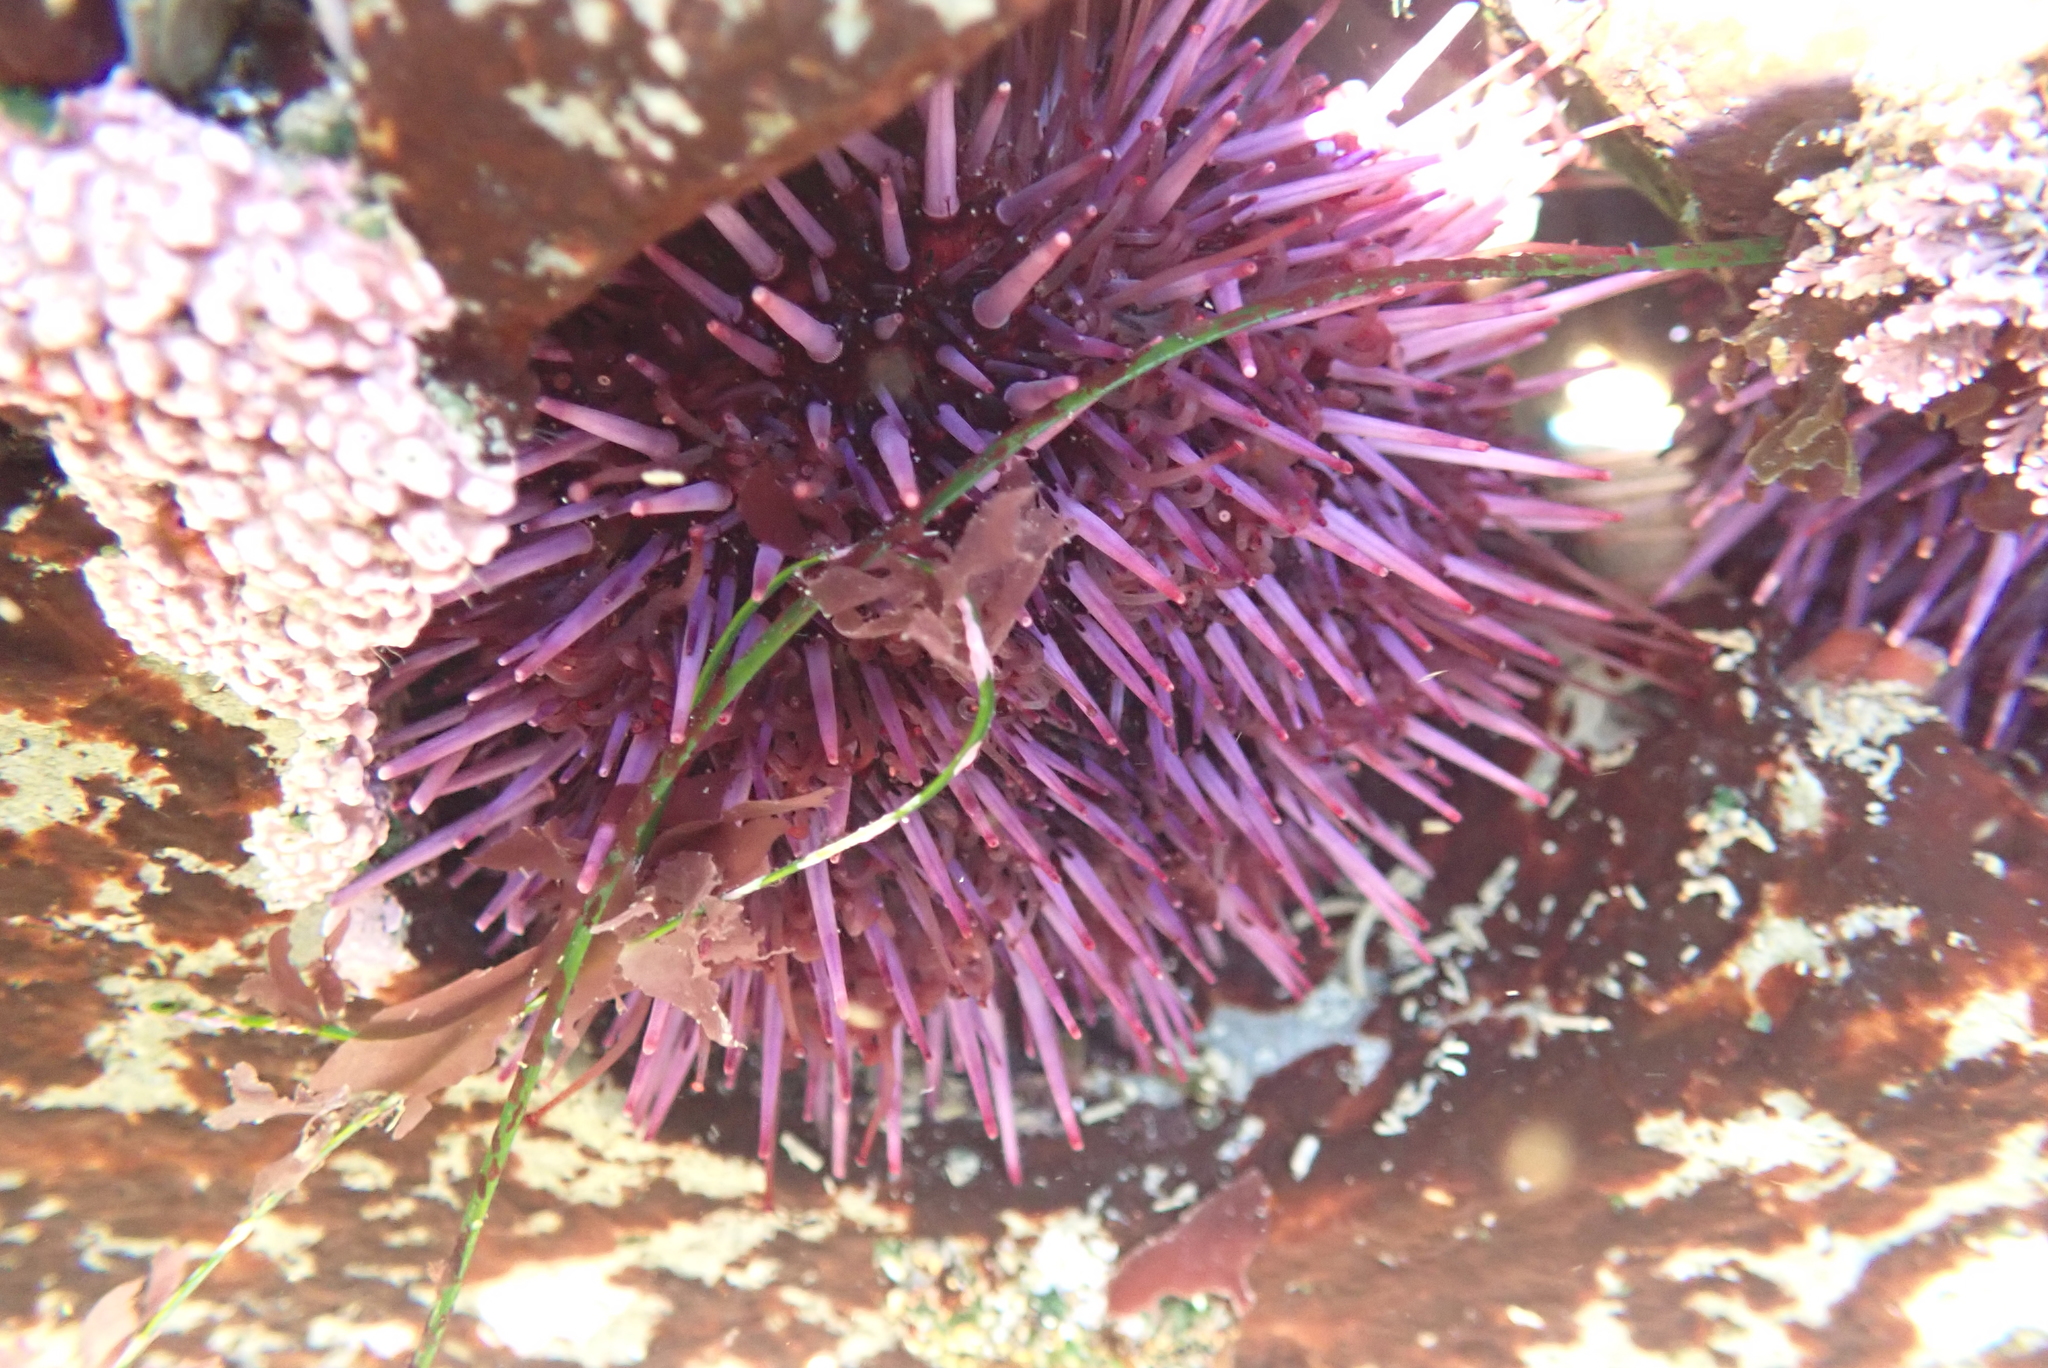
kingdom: Animalia
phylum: Echinodermata
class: Echinoidea
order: Camarodonta
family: Strongylocentrotidae
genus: Strongylocentrotus
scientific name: Strongylocentrotus purpuratus
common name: Purple sea urchin
